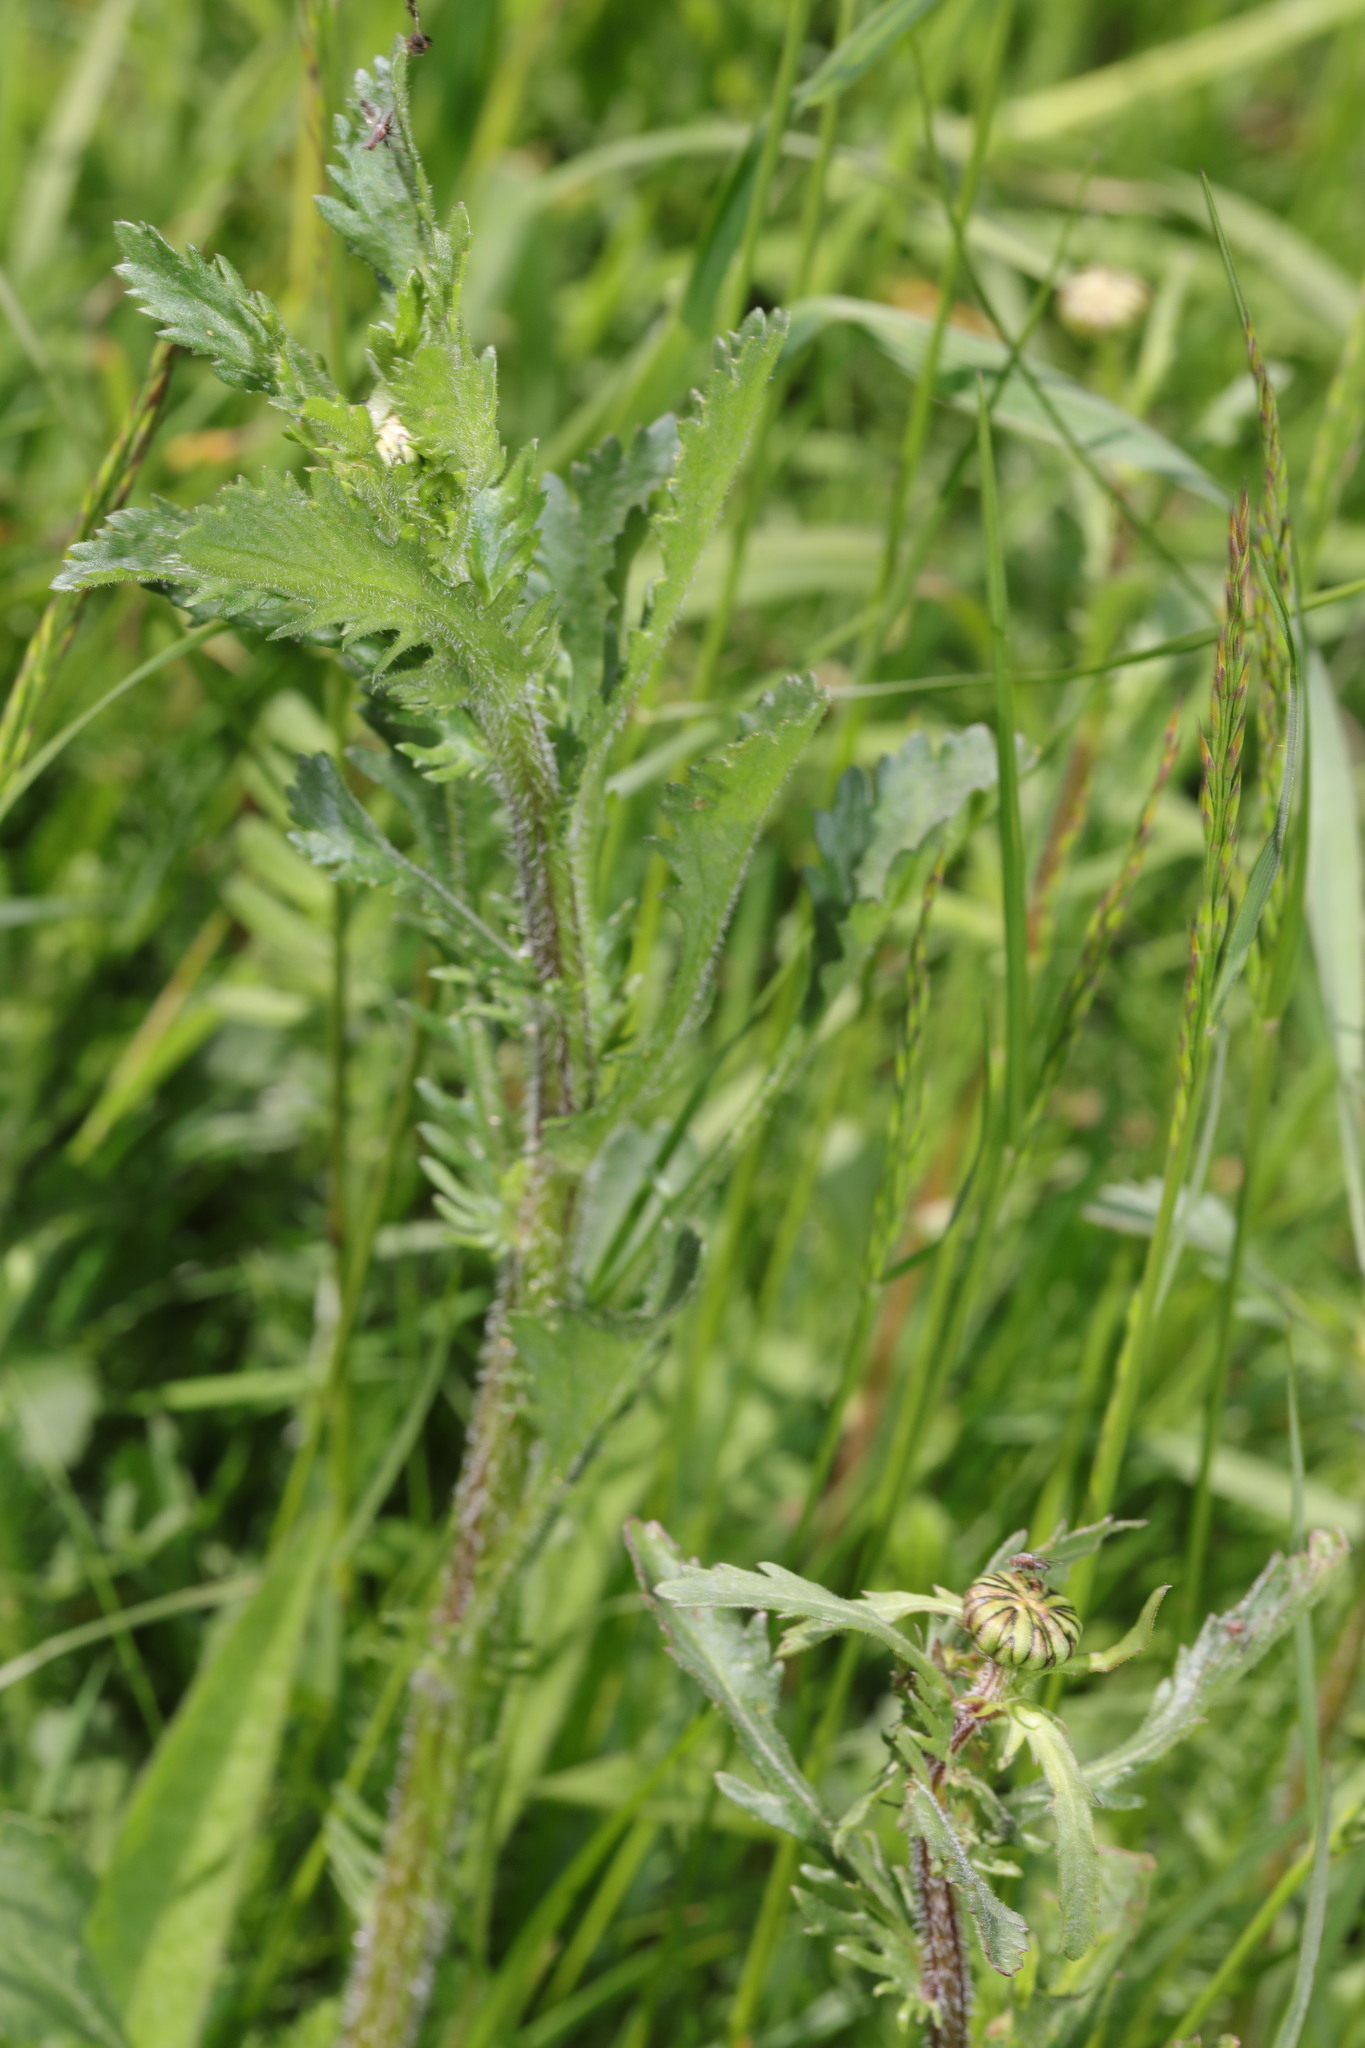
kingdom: Plantae
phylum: Tracheophyta
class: Magnoliopsida
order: Asterales
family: Asteraceae
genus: Leucanthemum
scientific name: Leucanthemum vulgare
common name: Oxeye daisy
